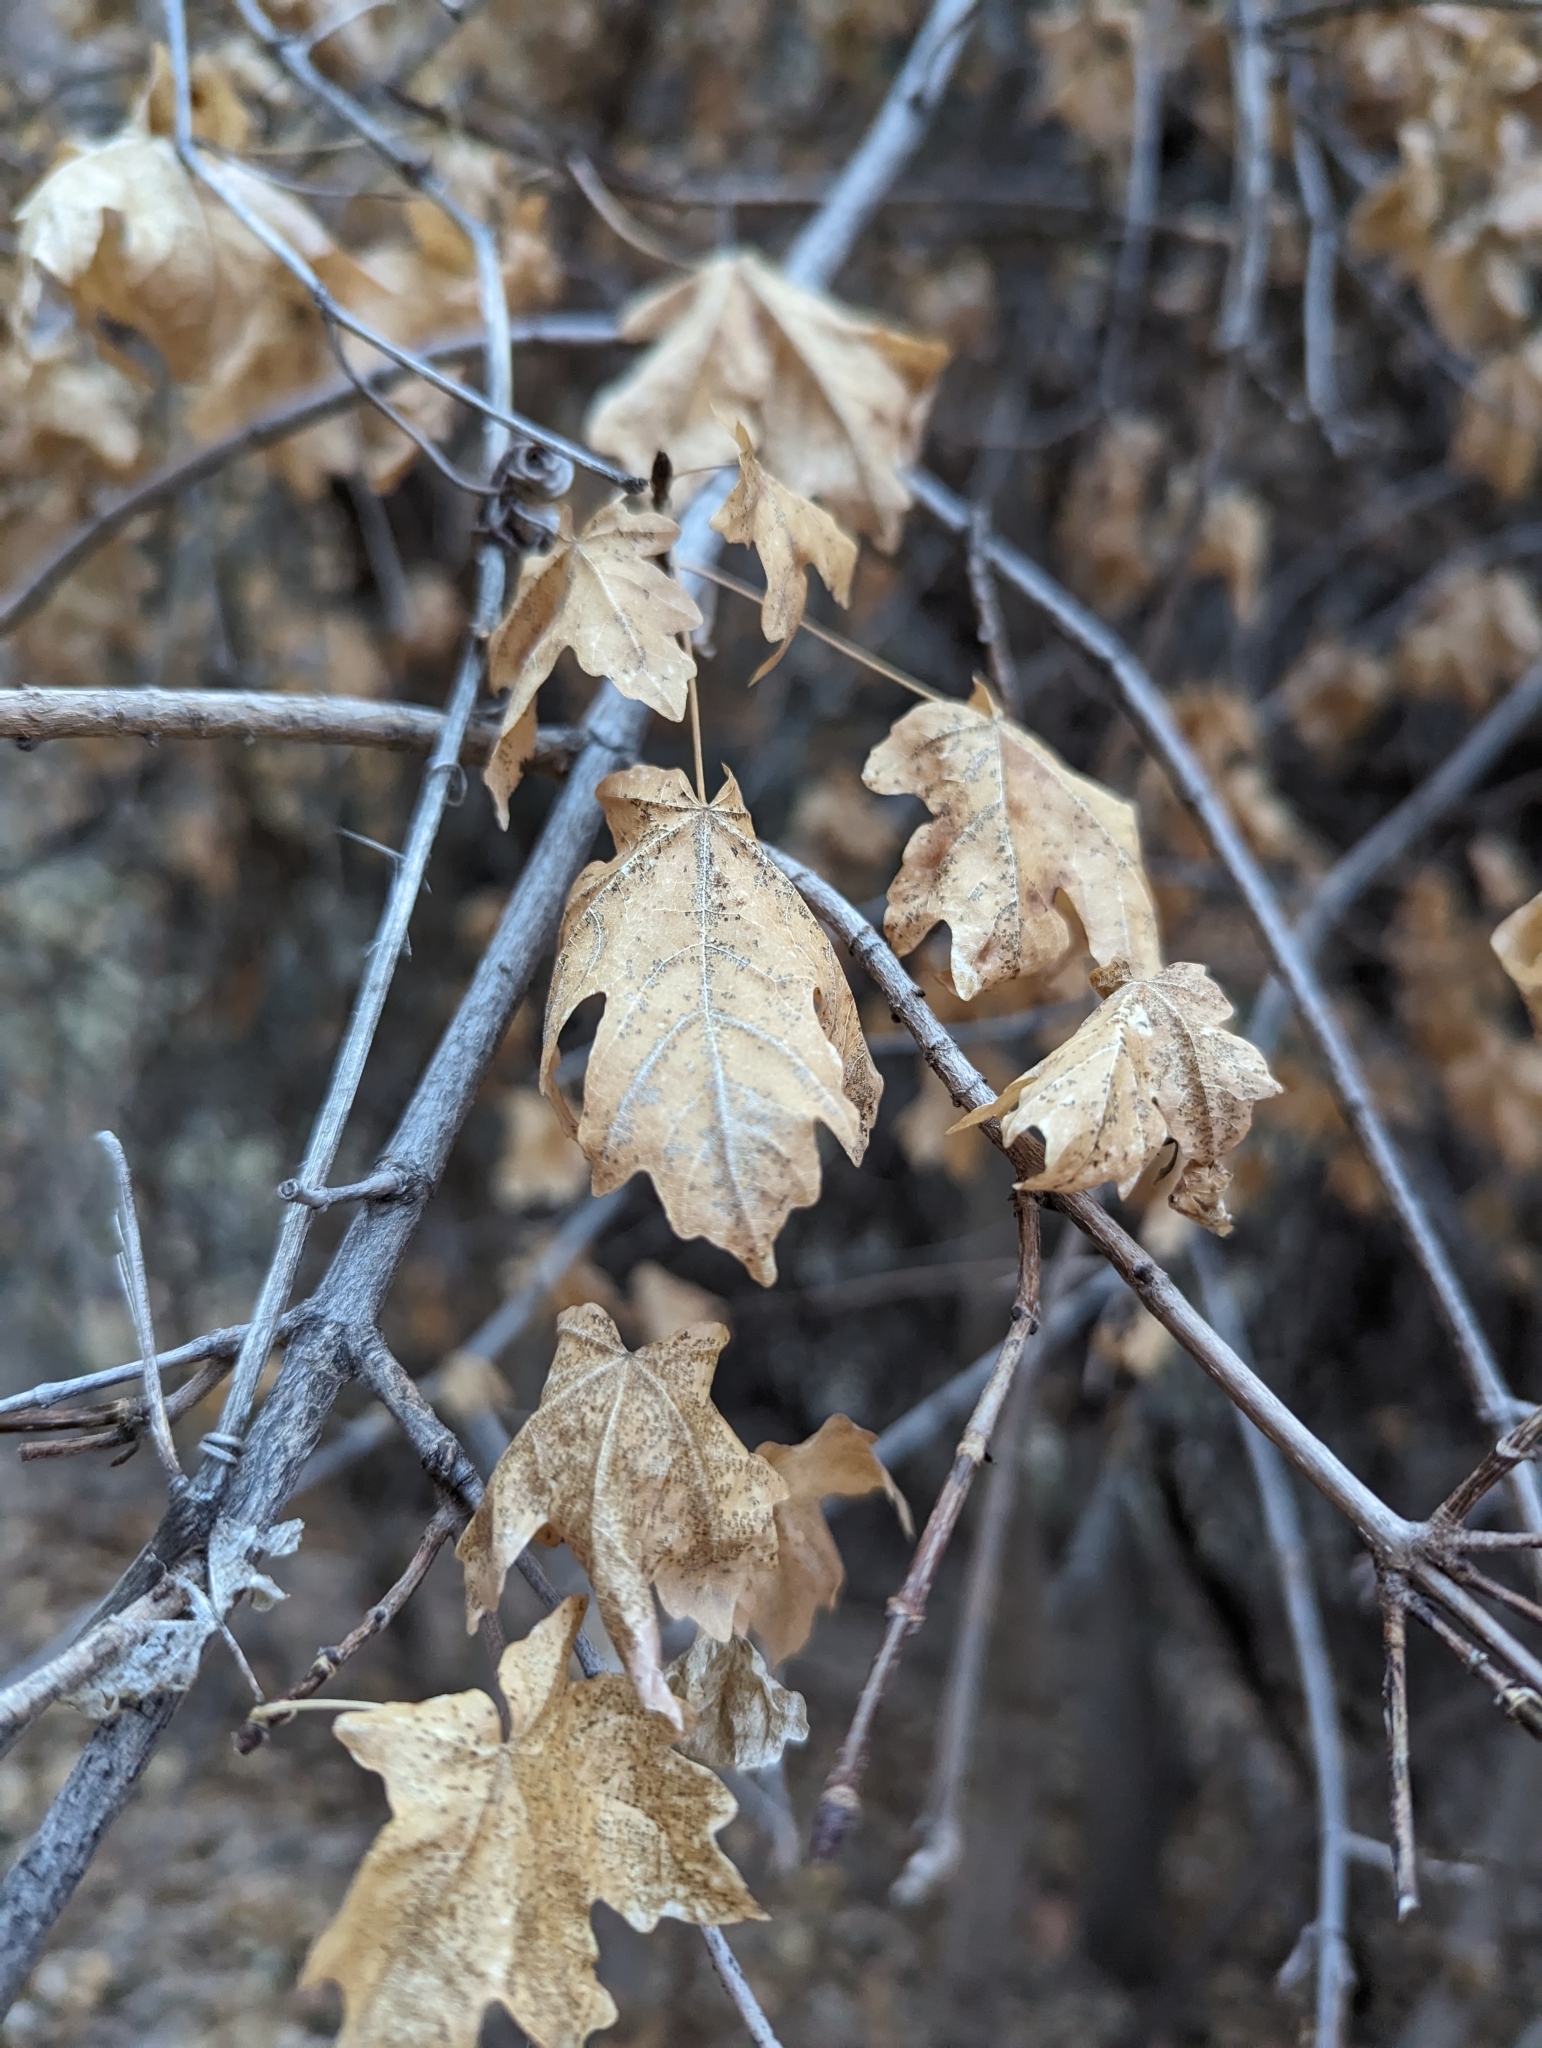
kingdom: Plantae
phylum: Tracheophyta
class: Magnoliopsida
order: Sapindales
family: Sapindaceae
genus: Acer
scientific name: Acer grandidentatum
